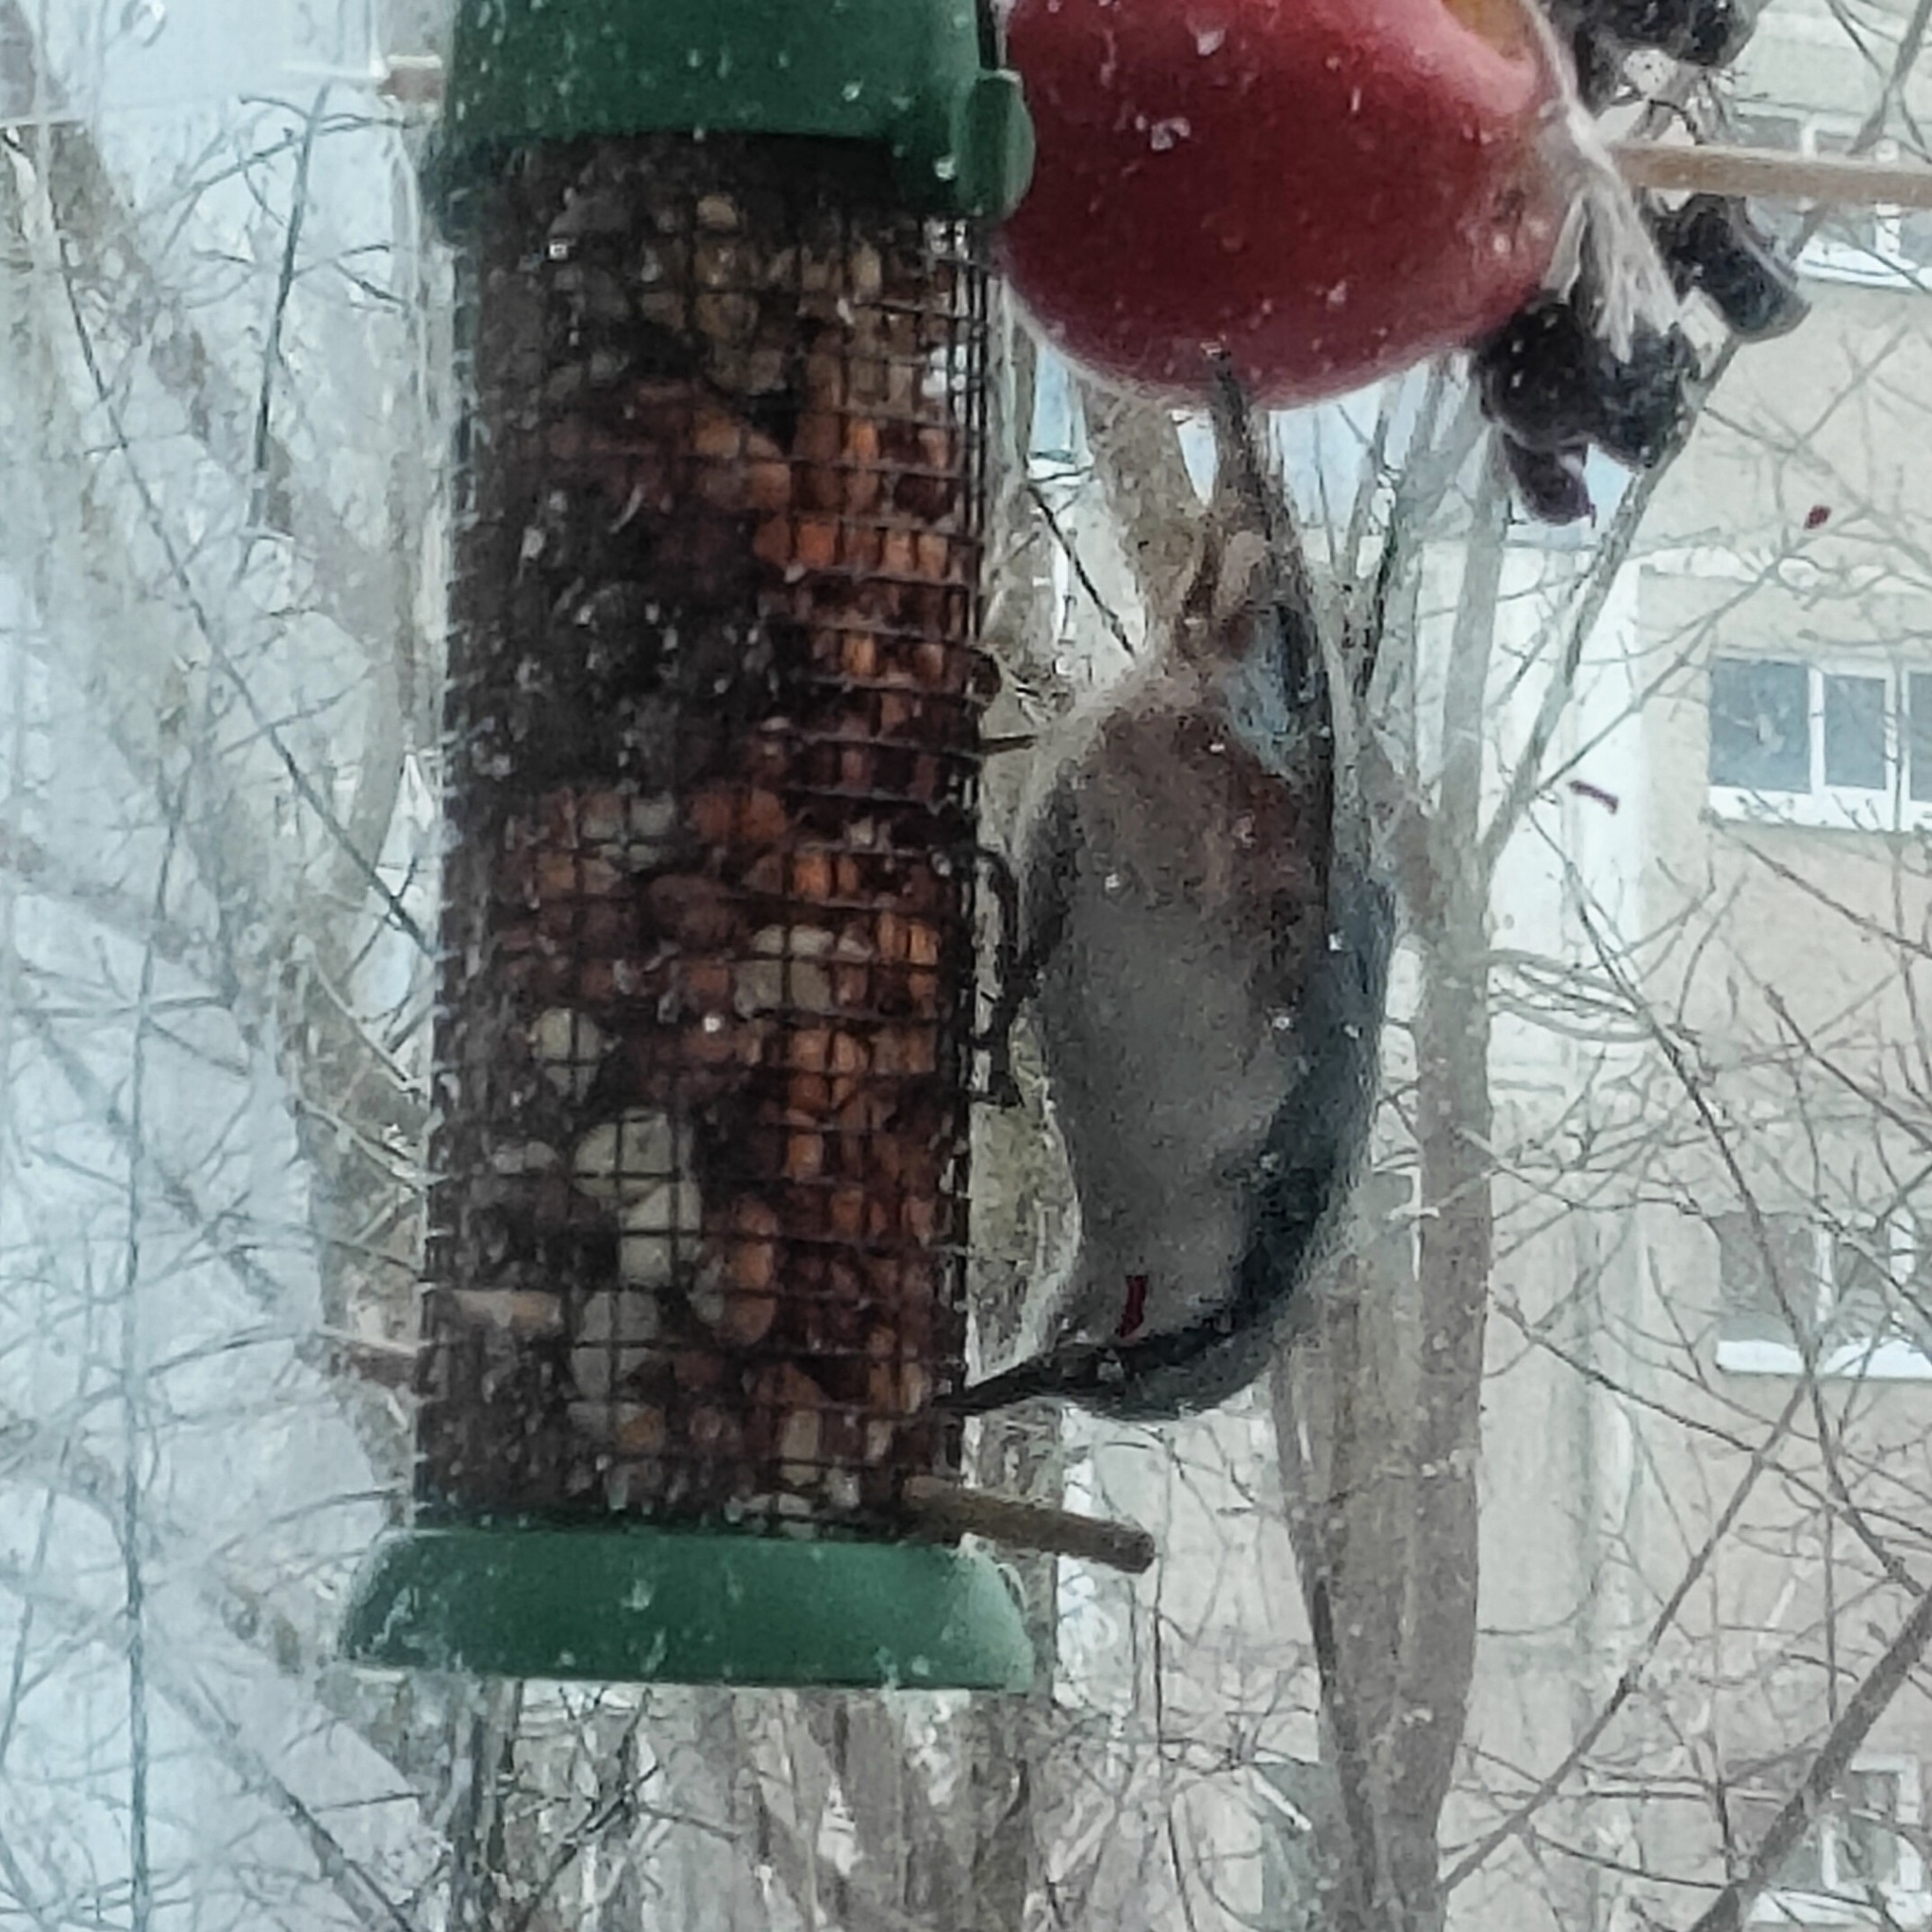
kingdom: Animalia
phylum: Chordata
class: Aves
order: Passeriformes
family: Sittidae
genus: Sitta
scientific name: Sitta europaea
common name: Eurasian nuthatch
